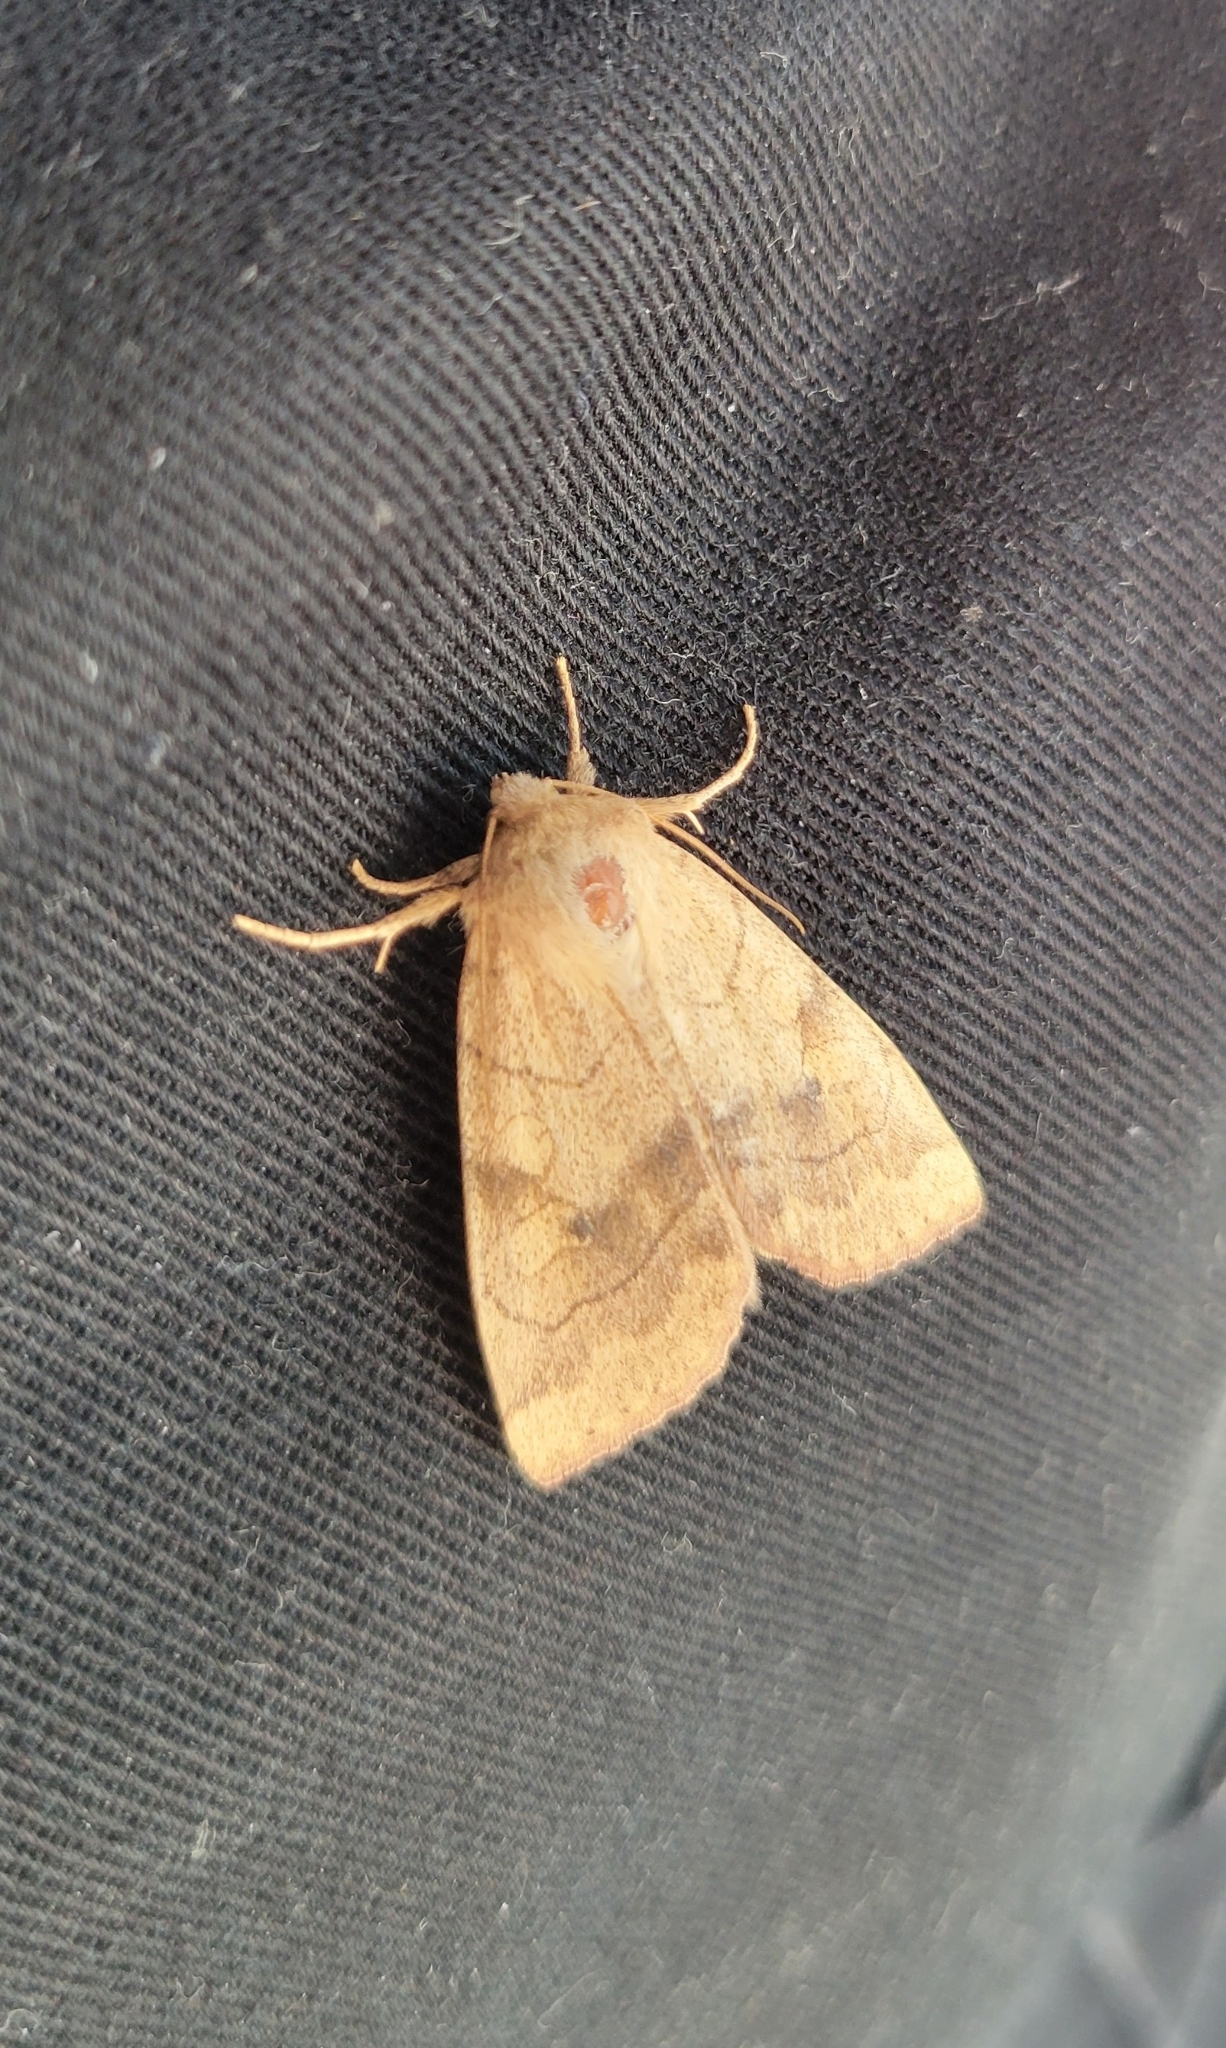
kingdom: Animalia
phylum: Arthropoda
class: Insecta
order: Lepidoptera
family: Noctuidae
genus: Enargia
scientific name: Enargia infumata
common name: Smoked sallow
